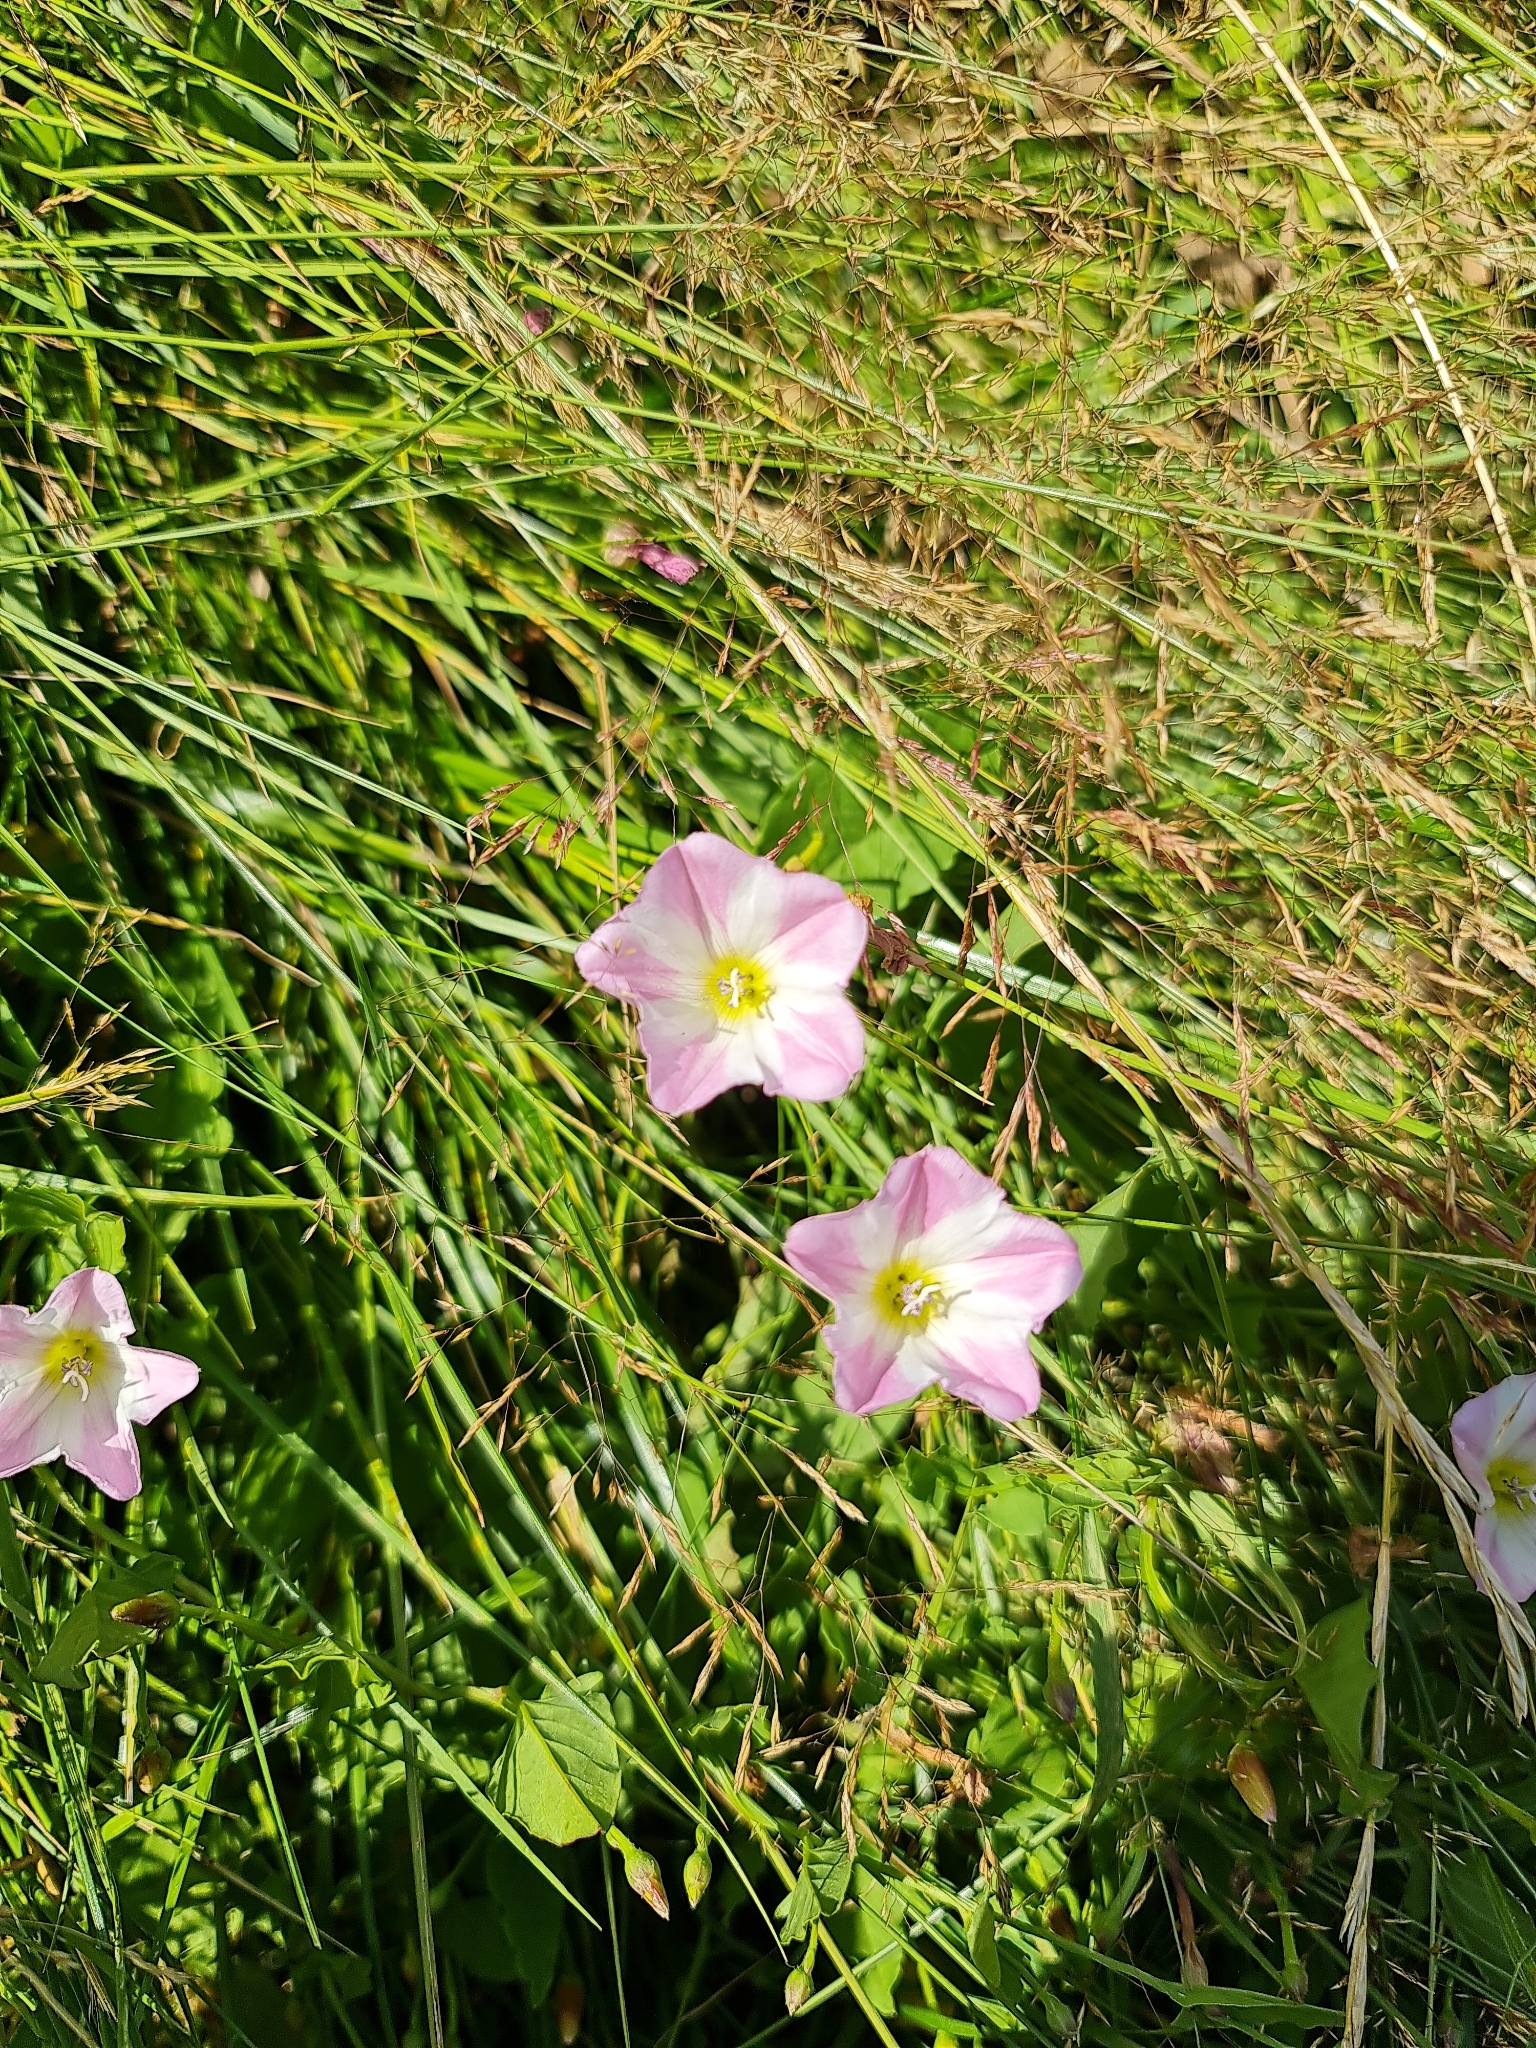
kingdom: Plantae
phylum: Tracheophyta
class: Magnoliopsida
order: Solanales
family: Convolvulaceae
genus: Convolvulus
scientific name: Convolvulus arvensis
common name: Field bindweed
